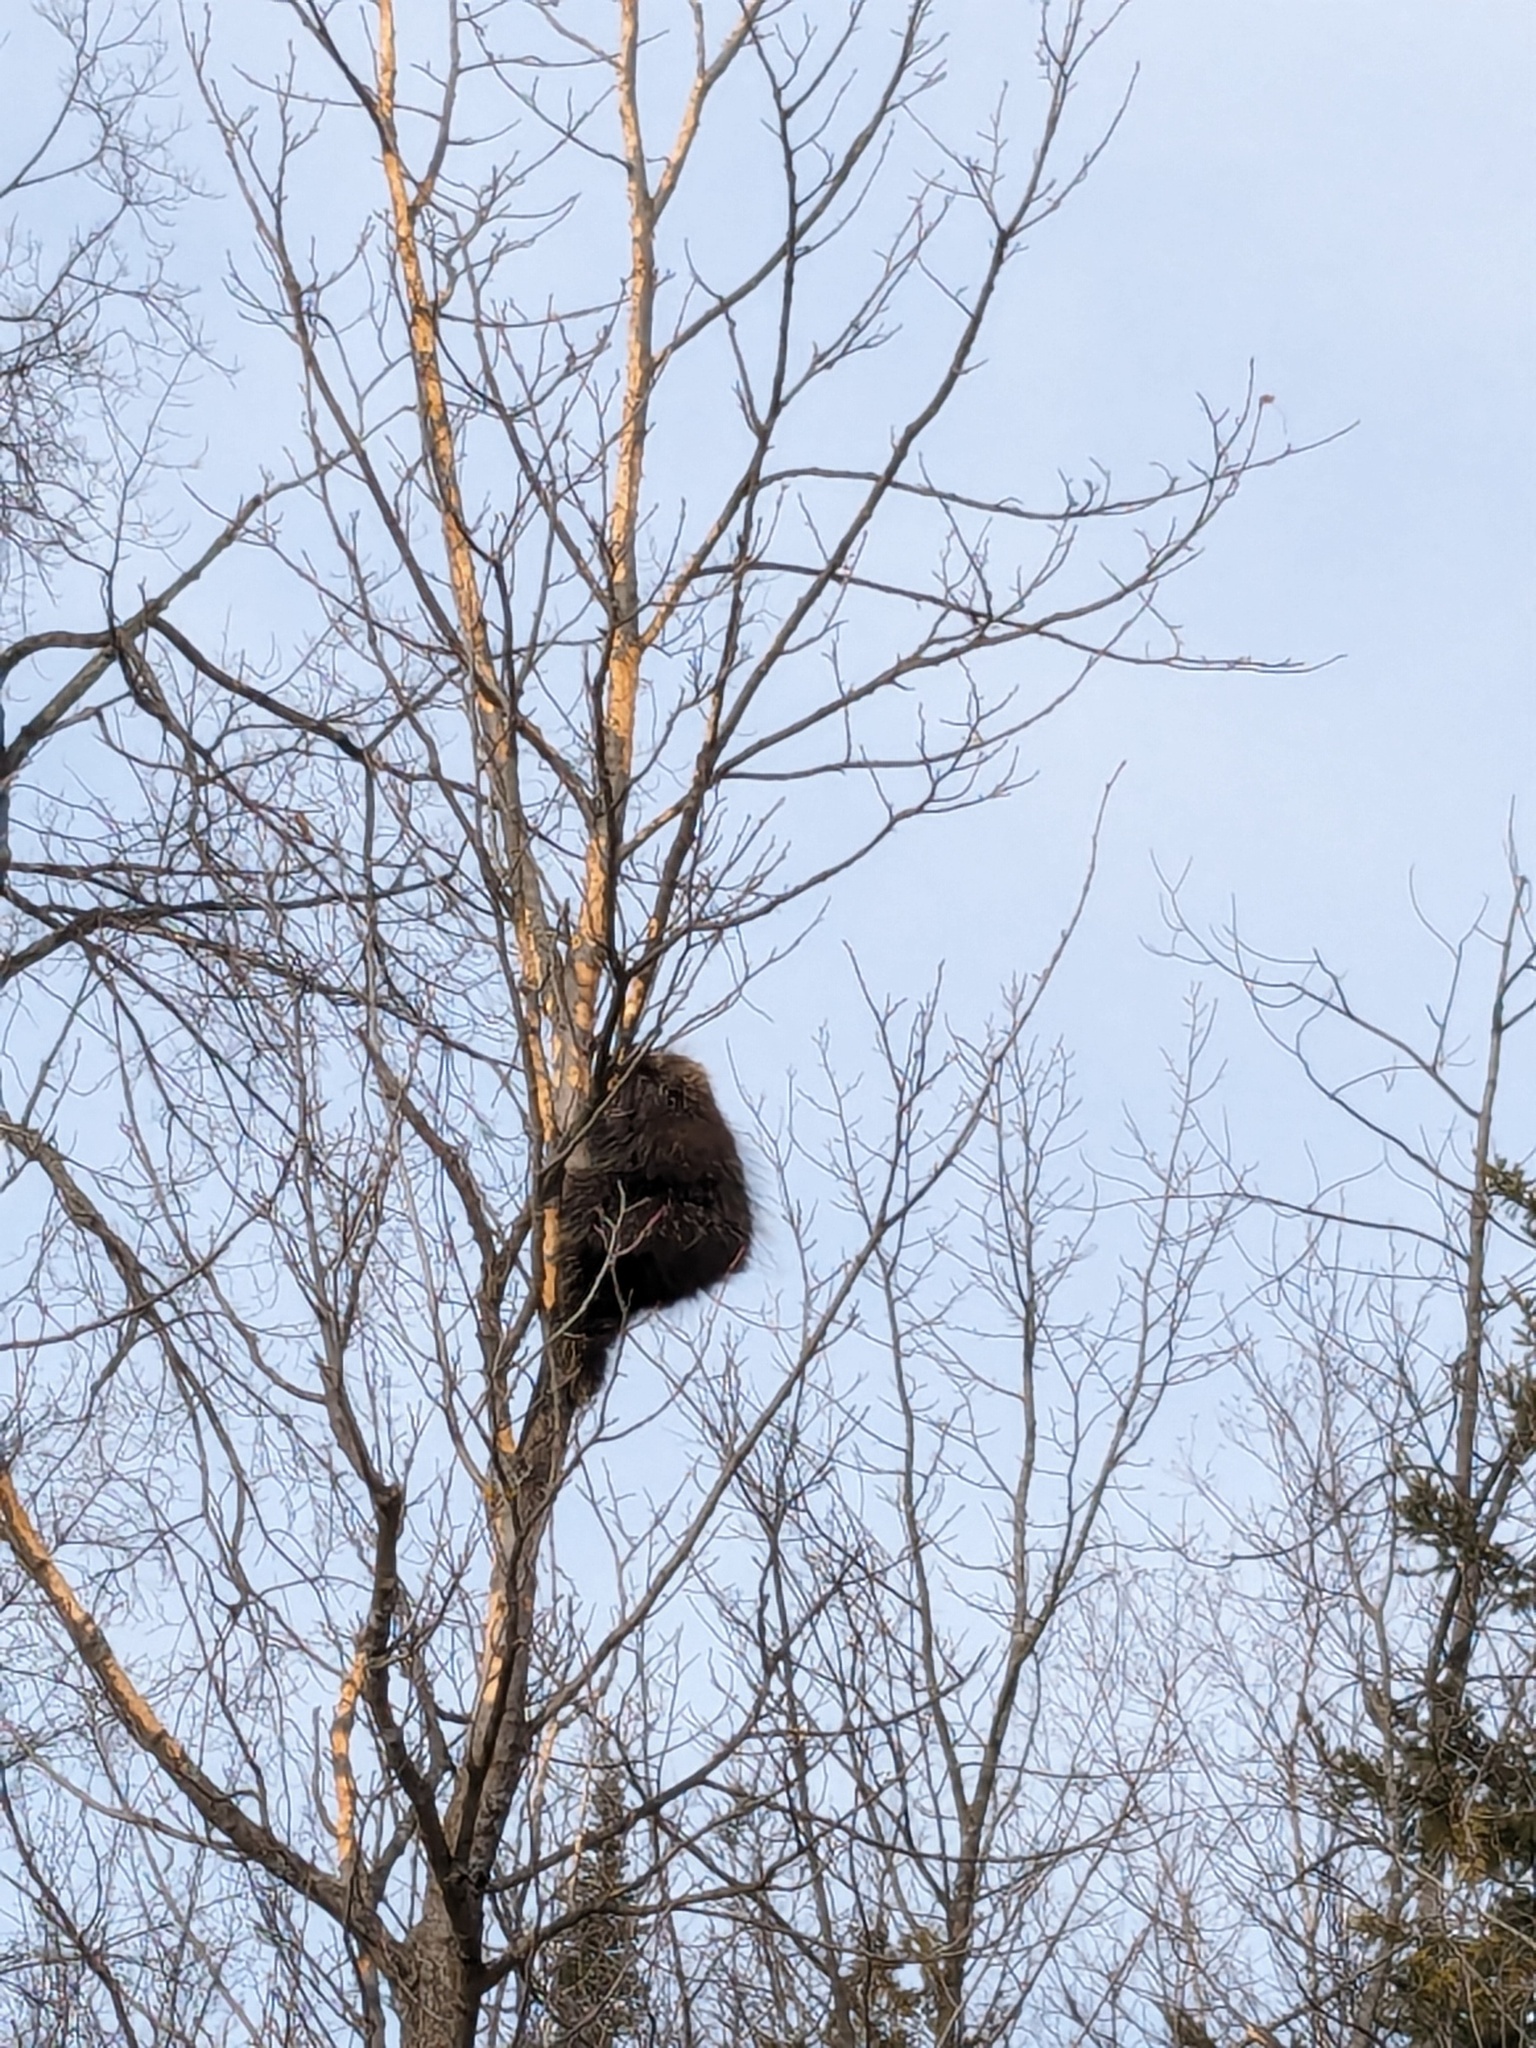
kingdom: Animalia
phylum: Chordata
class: Mammalia
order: Rodentia
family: Erethizontidae
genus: Erethizon
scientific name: Erethizon dorsatus
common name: North american porcupine
